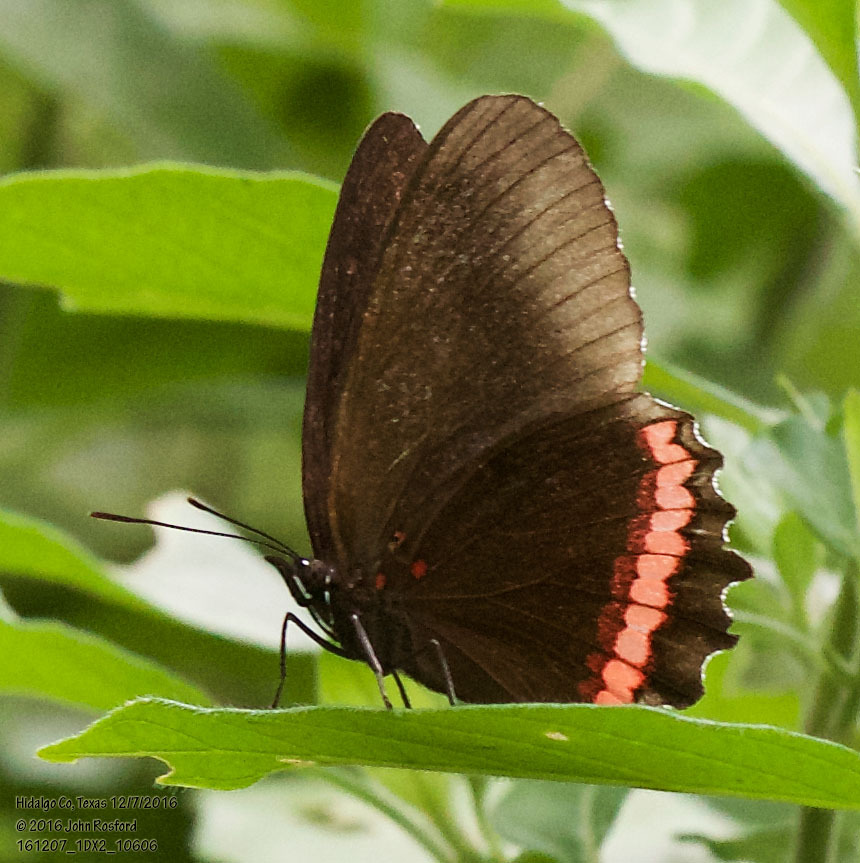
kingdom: Animalia
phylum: Arthropoda
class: Insecta
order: Lepidoptera
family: Nymphalidae
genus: Biblis
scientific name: Biblis aganisa
